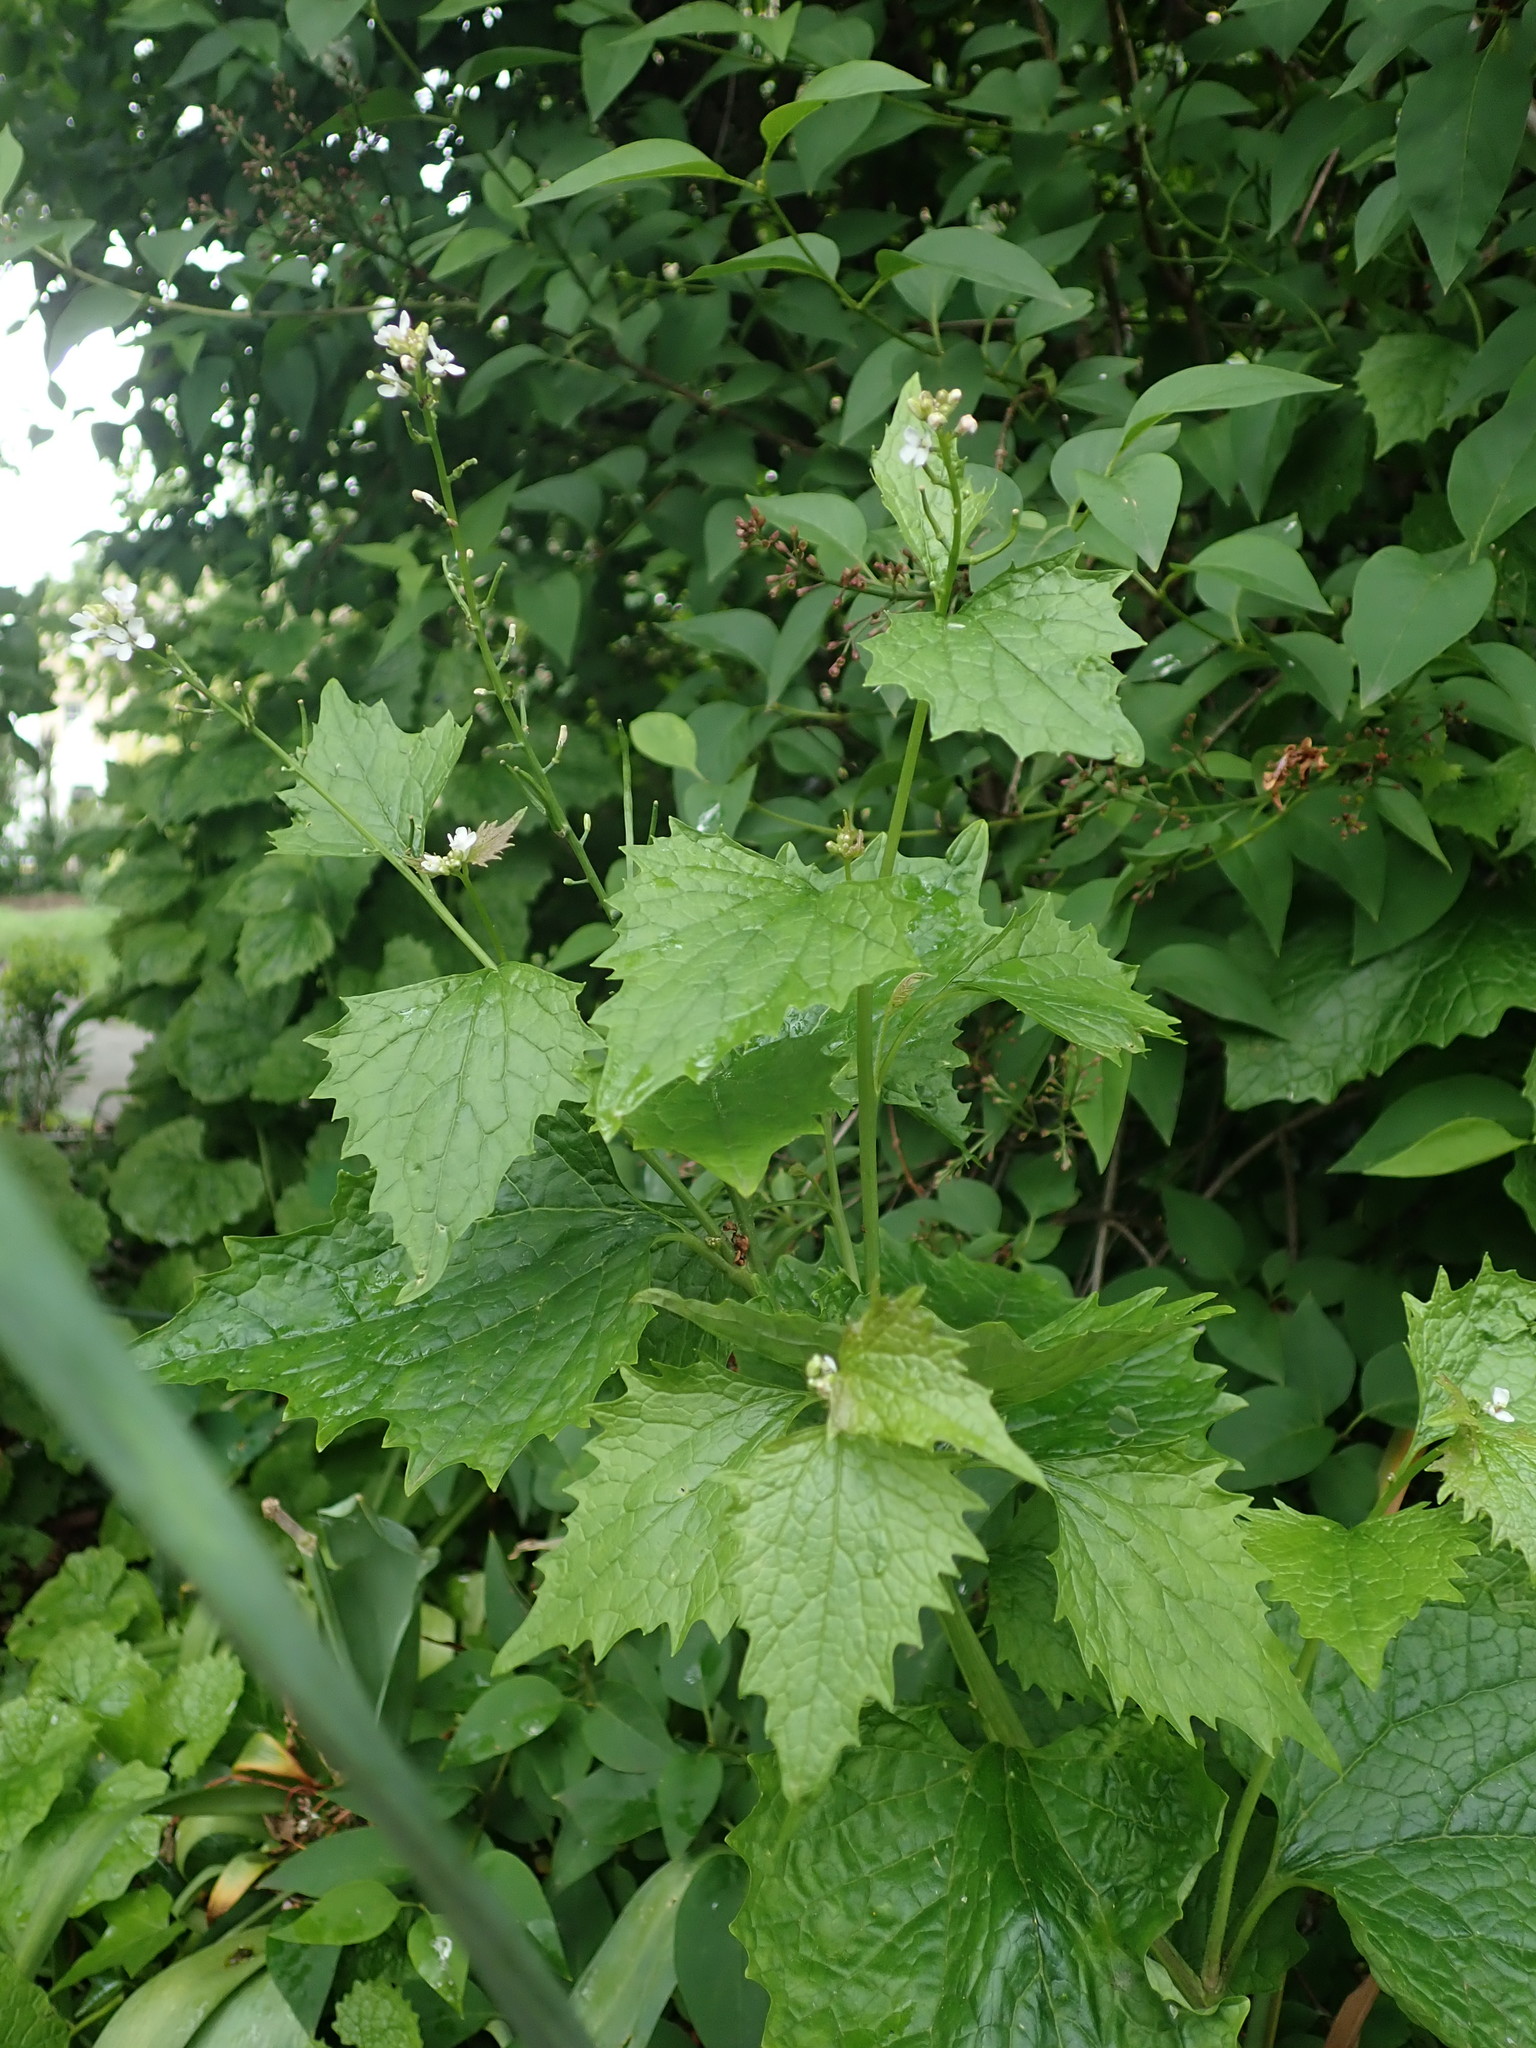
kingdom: Plantae
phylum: Tracheophyta
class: Magnoliopsida
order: Brassicales
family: Brassicaceae
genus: Alliaria
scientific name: Alliaria petiolata
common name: Garlic mustard
